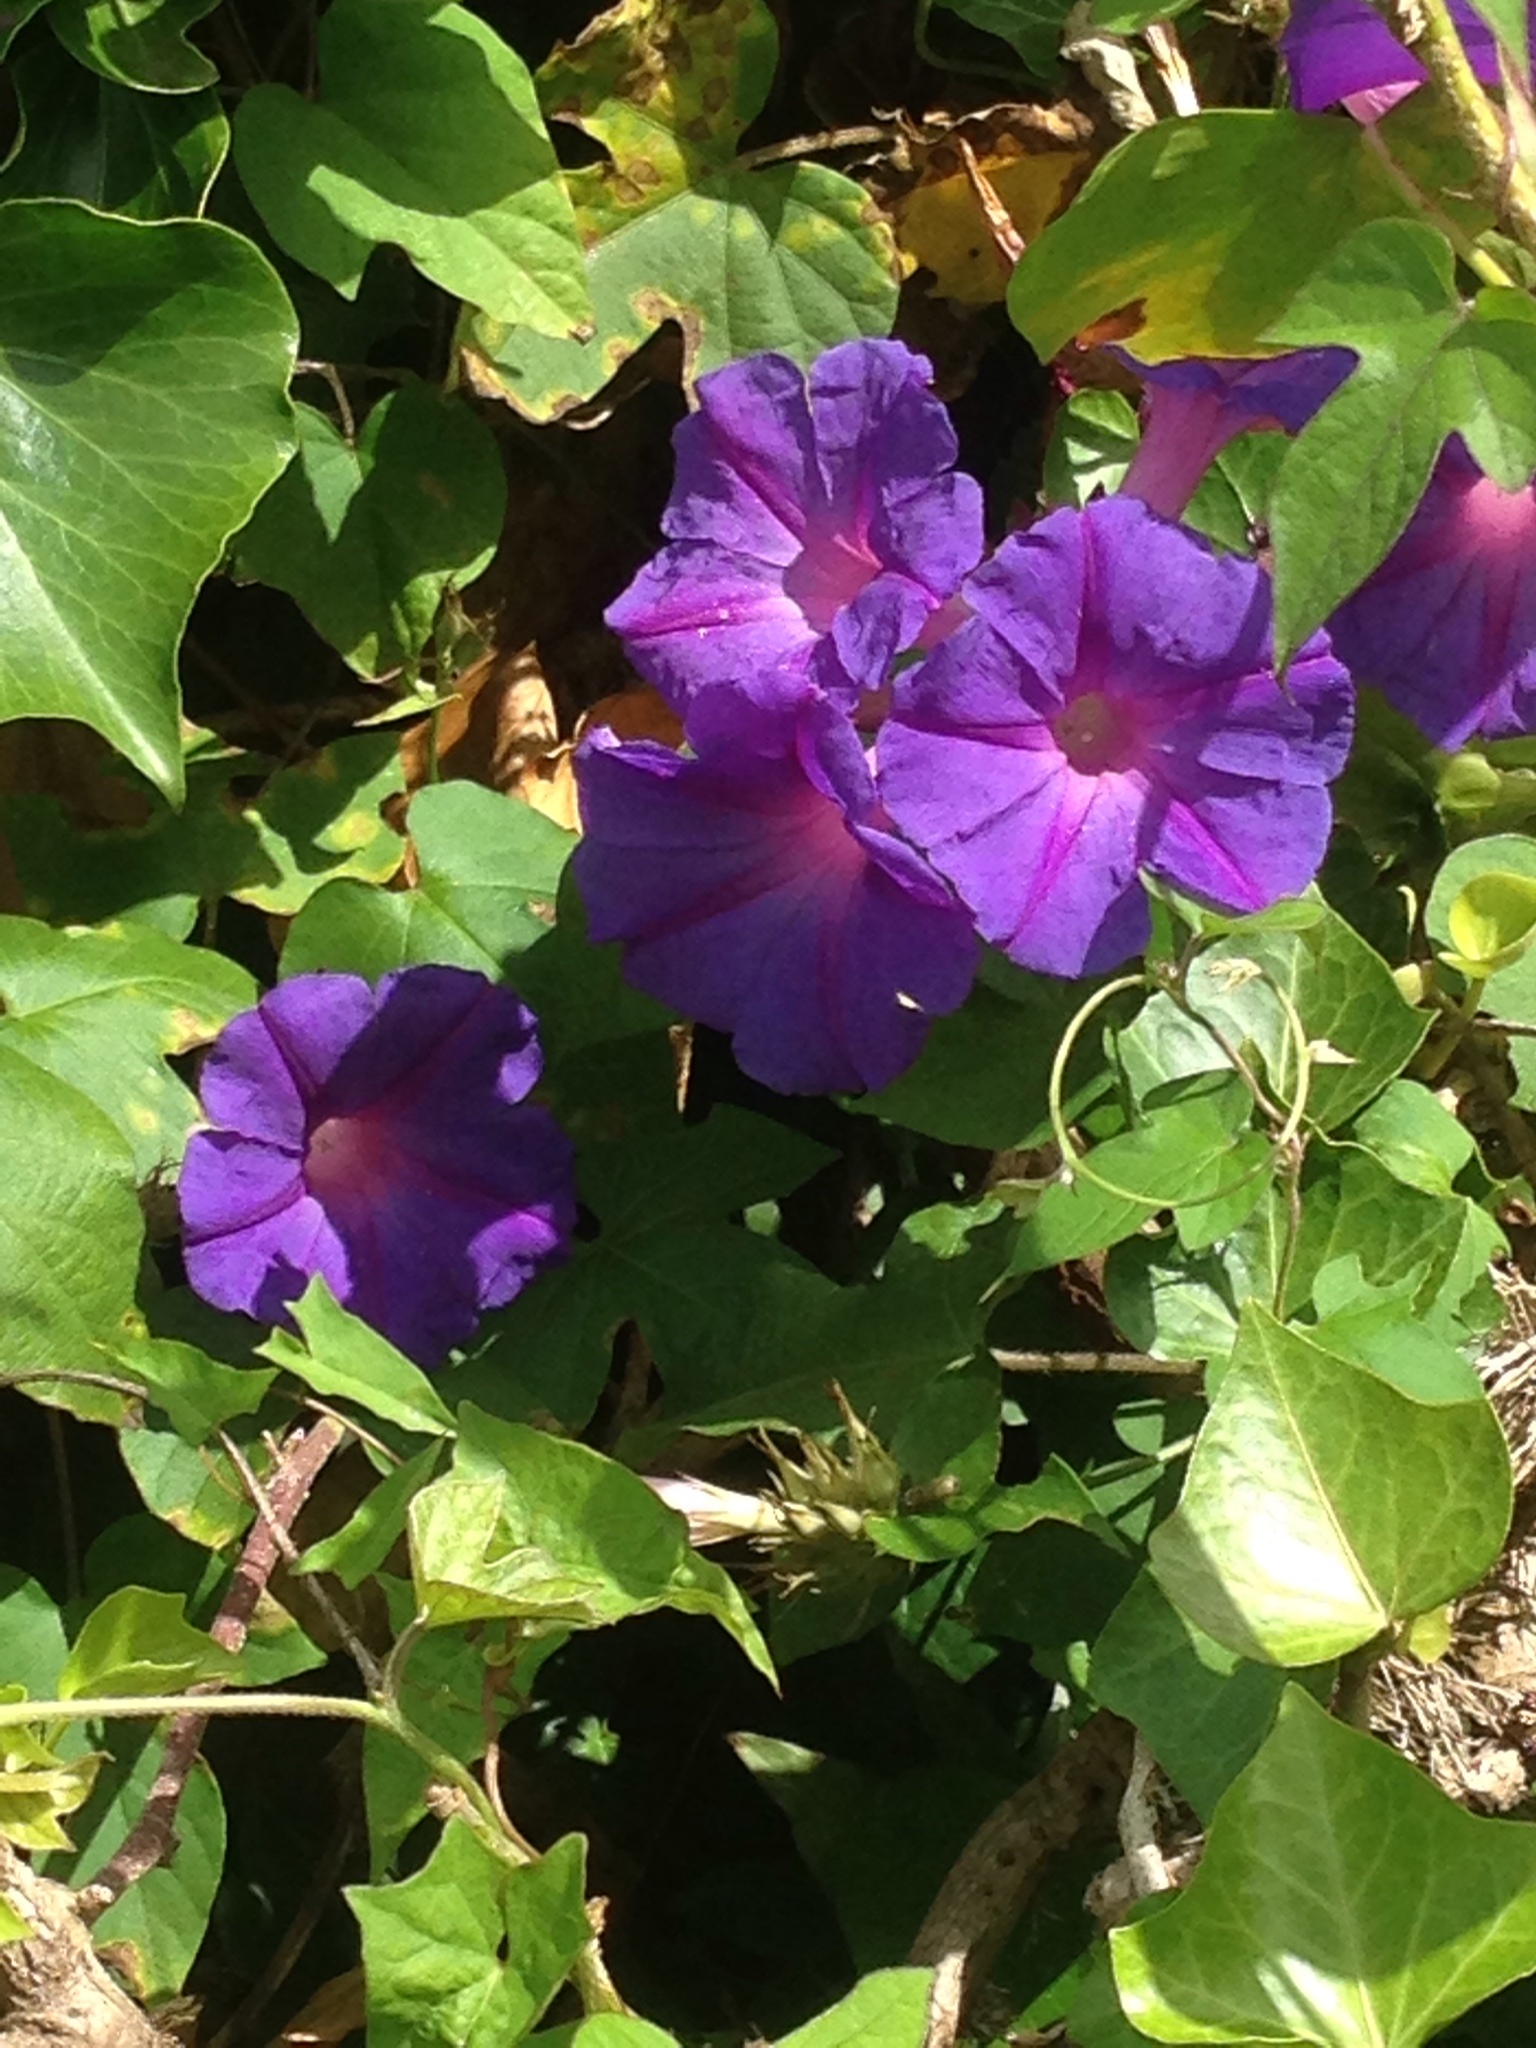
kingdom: Plantae
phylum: Tracheophyta
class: Magnoliopsida
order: Solanales
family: Convolvulaceae
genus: Ipomoea
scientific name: Ipomoea indica
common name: Blue dawnflower
